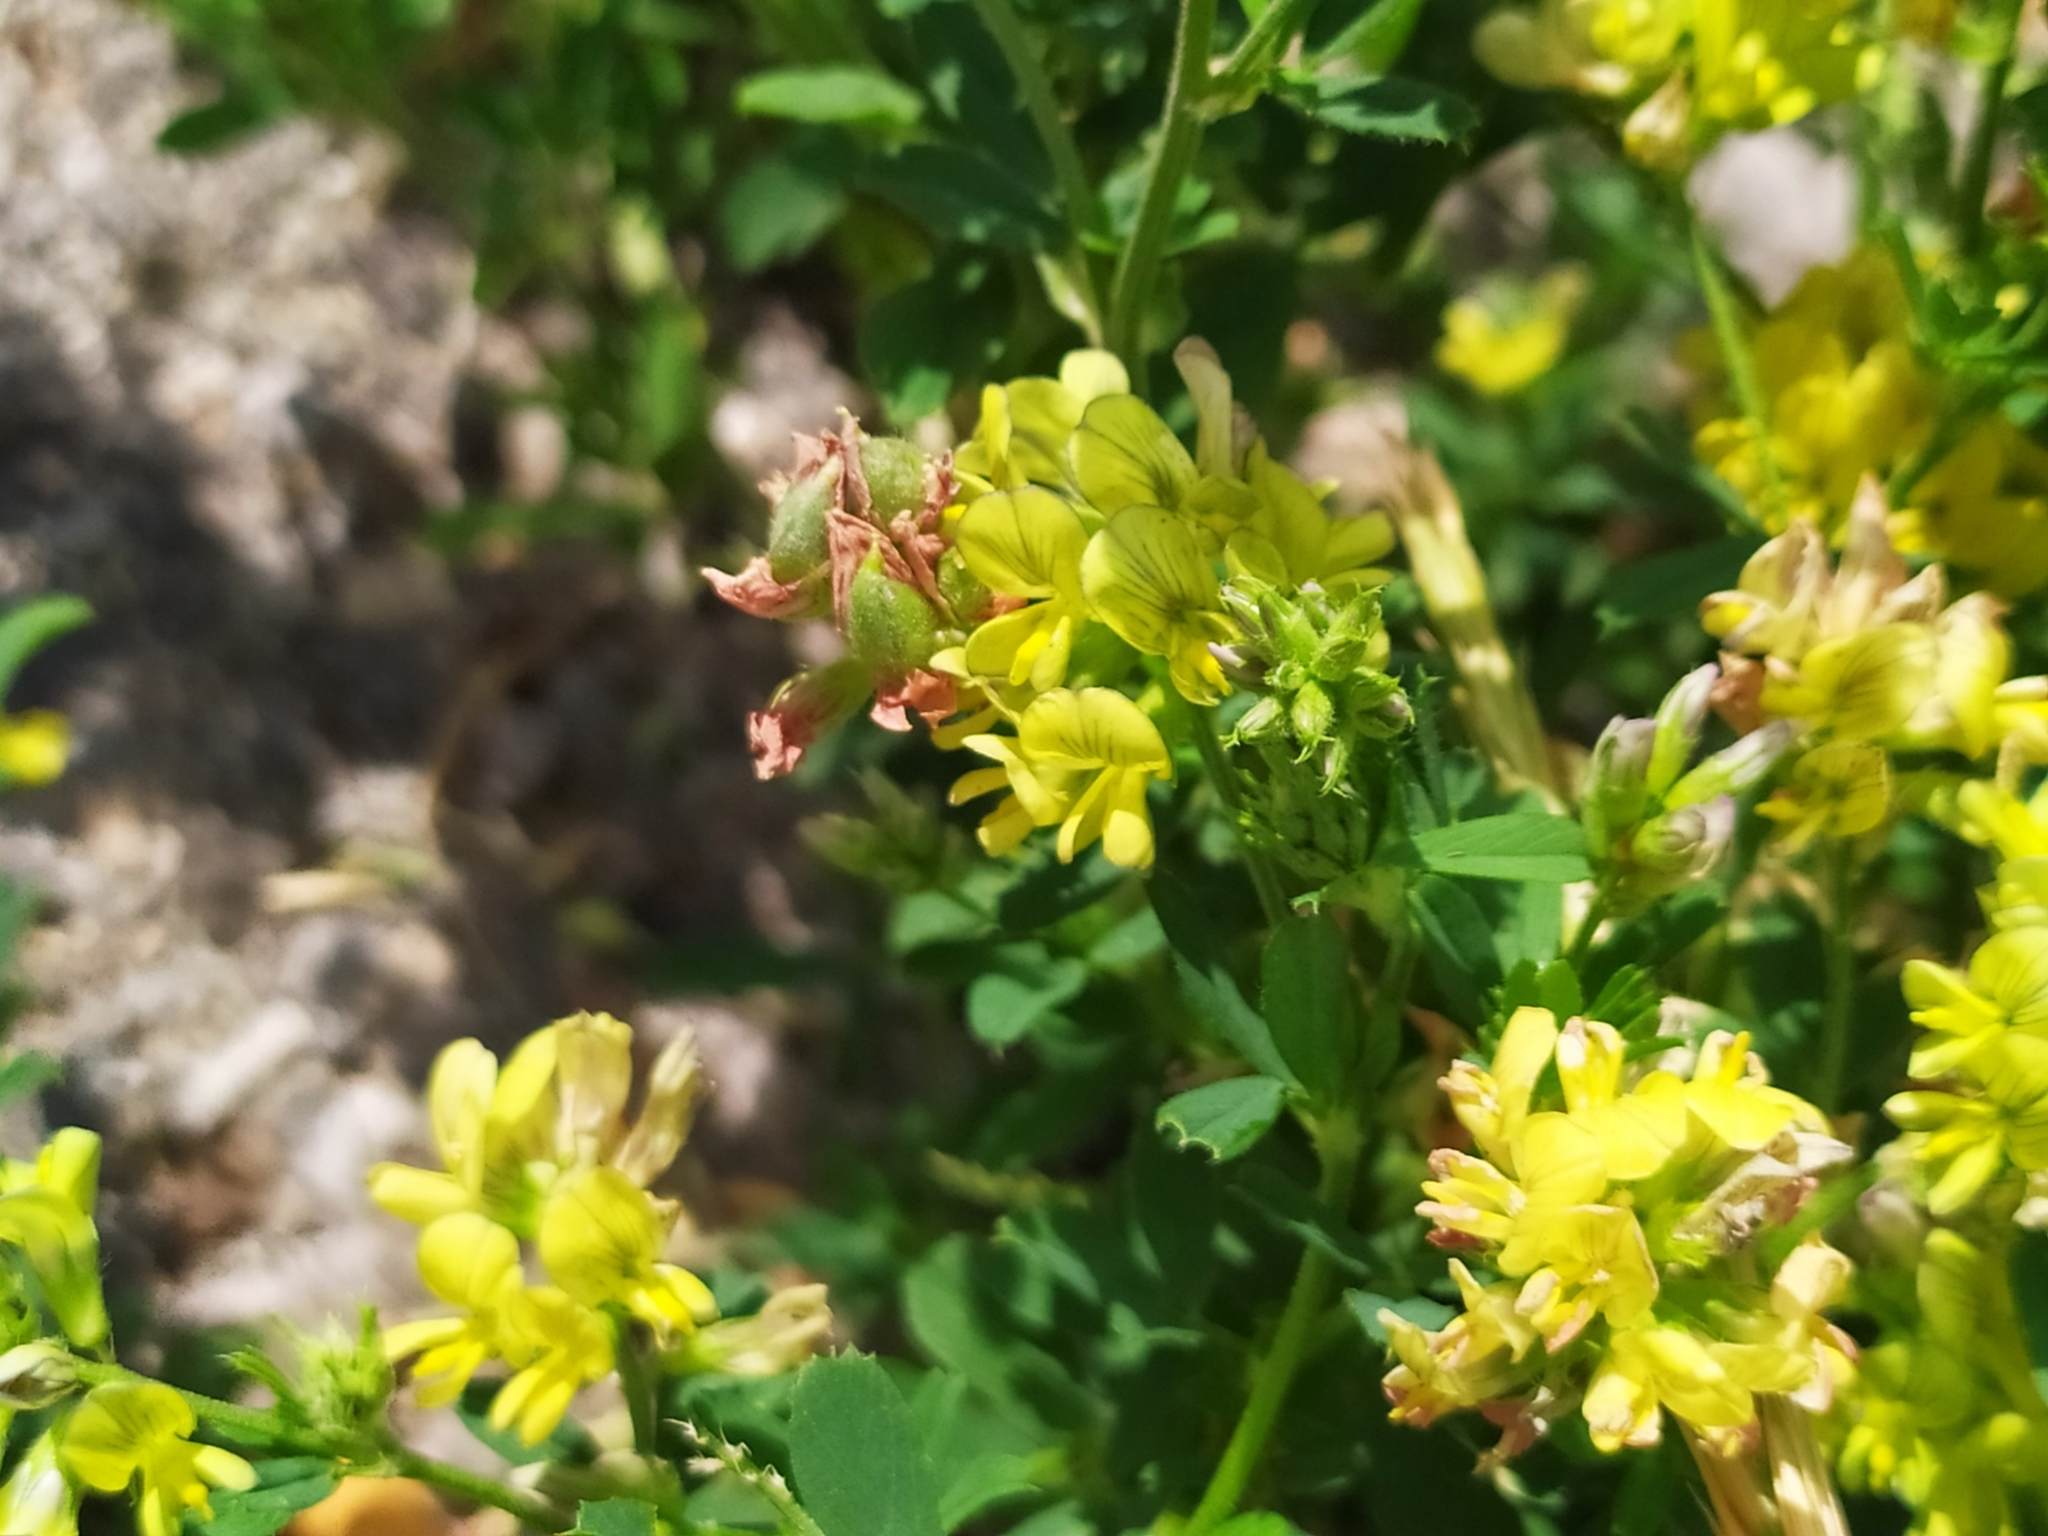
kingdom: Plantae
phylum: Tracheophyta
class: Magnoliopsida
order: Fabales
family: Fabaceae
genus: Medicago
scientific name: Medicago falcata
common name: Sickle medick
